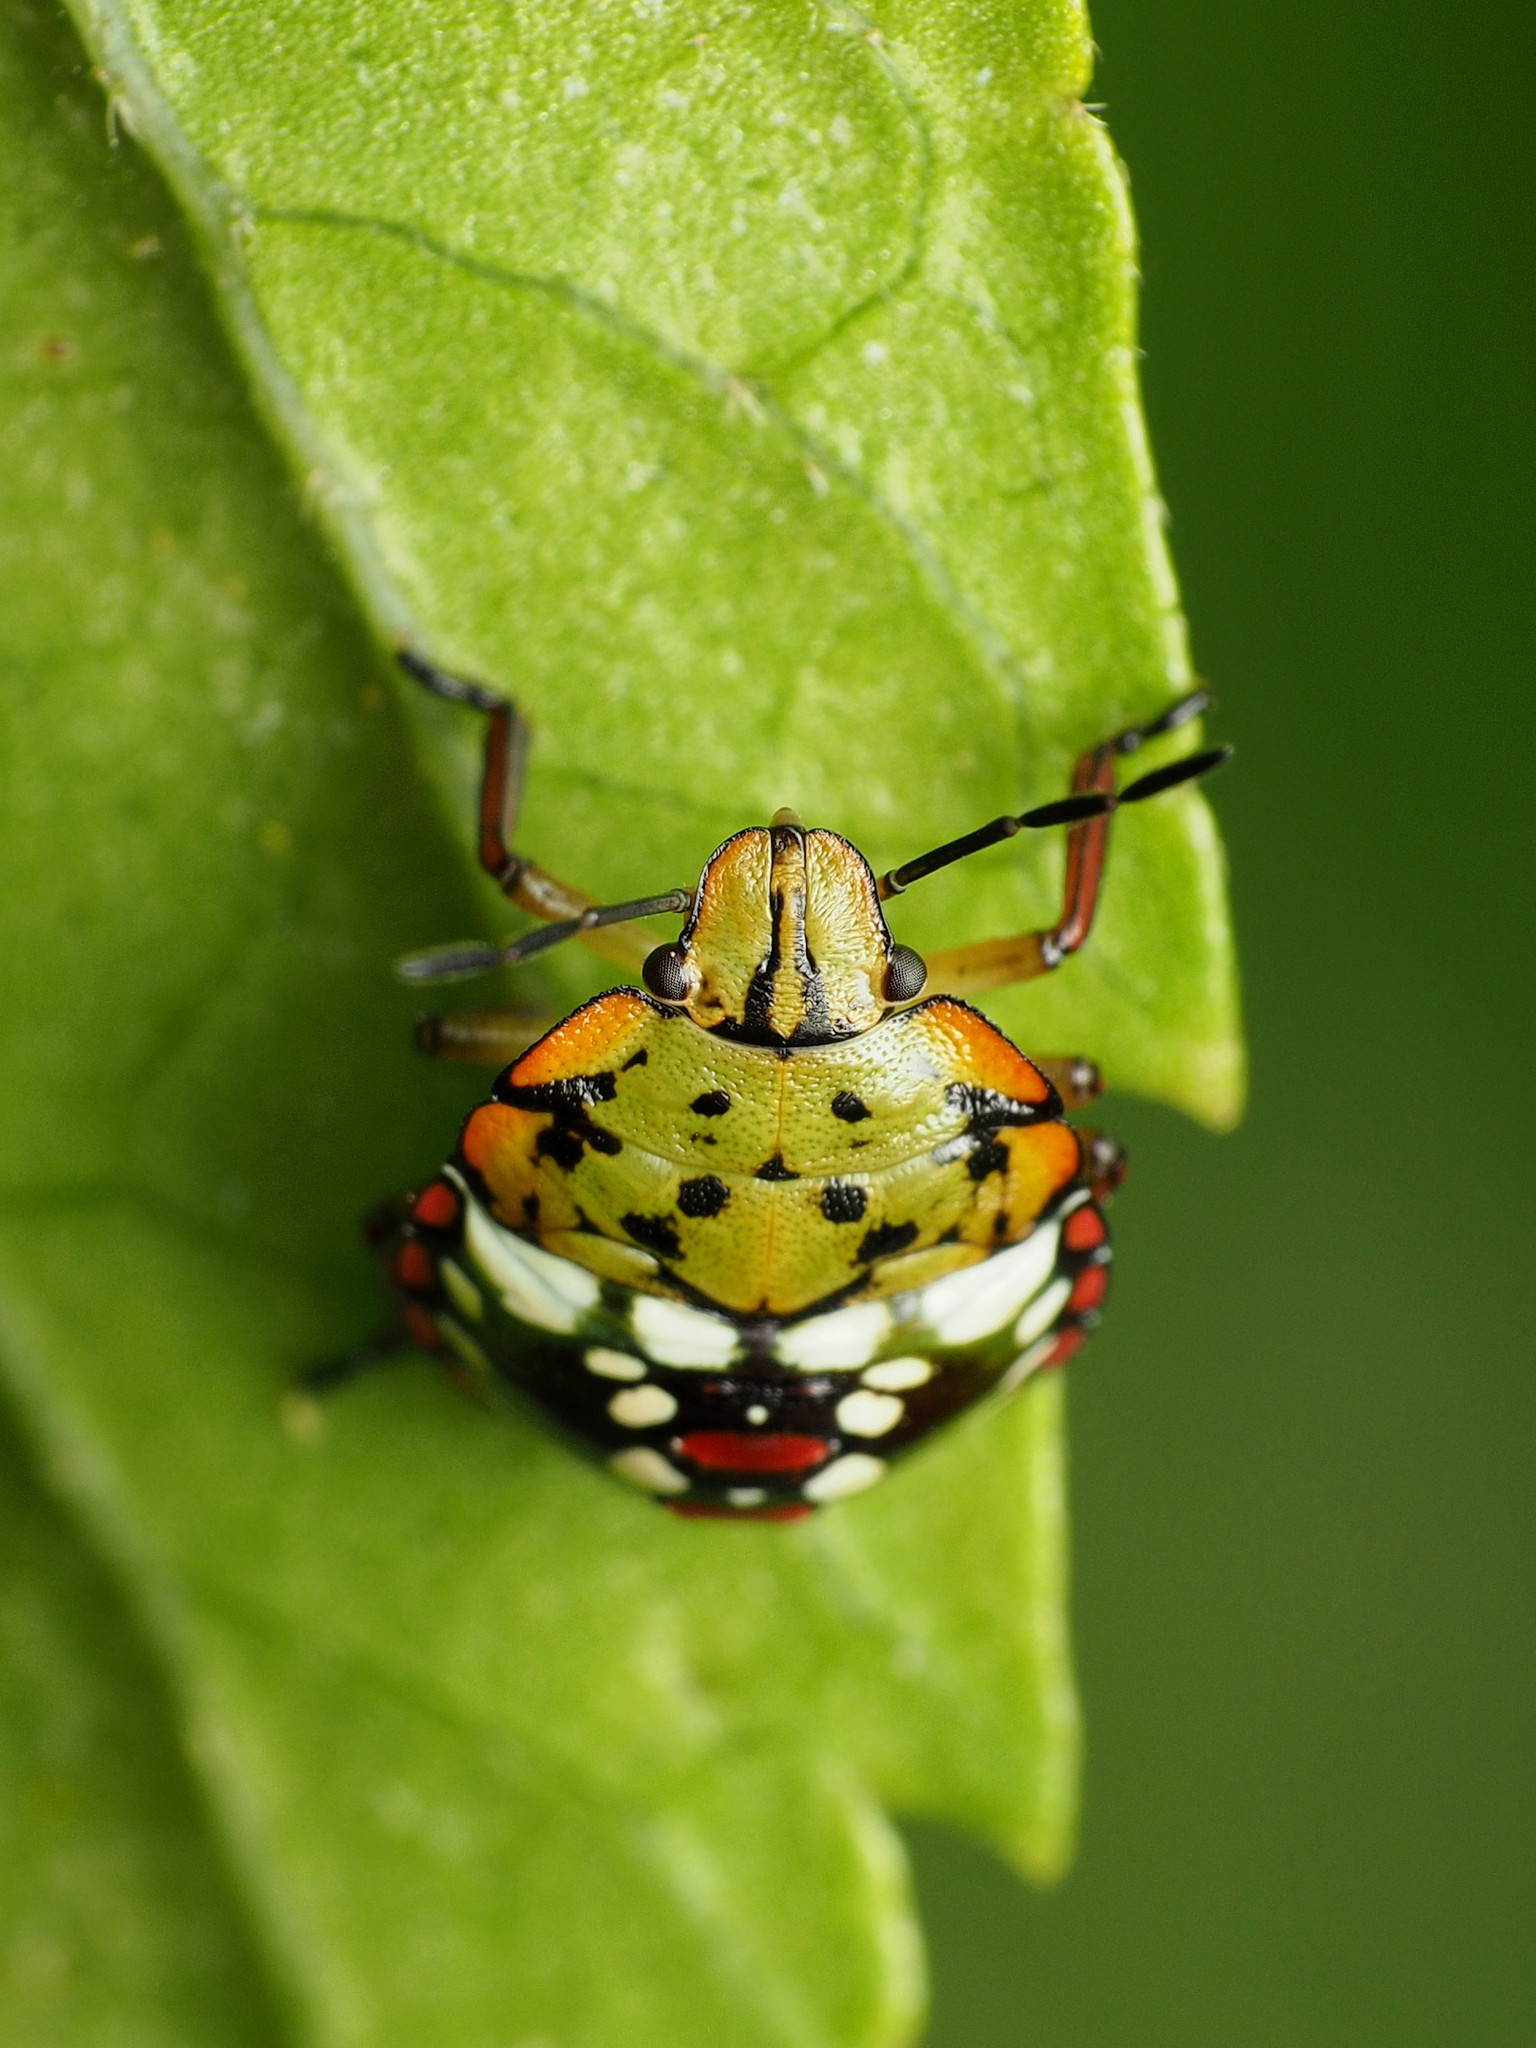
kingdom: Animalia
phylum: Arthropoda
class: Insecta
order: Hemiptera
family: Pentatomidae
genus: Nezara
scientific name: Nezara viridula
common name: Southern green stink bug
